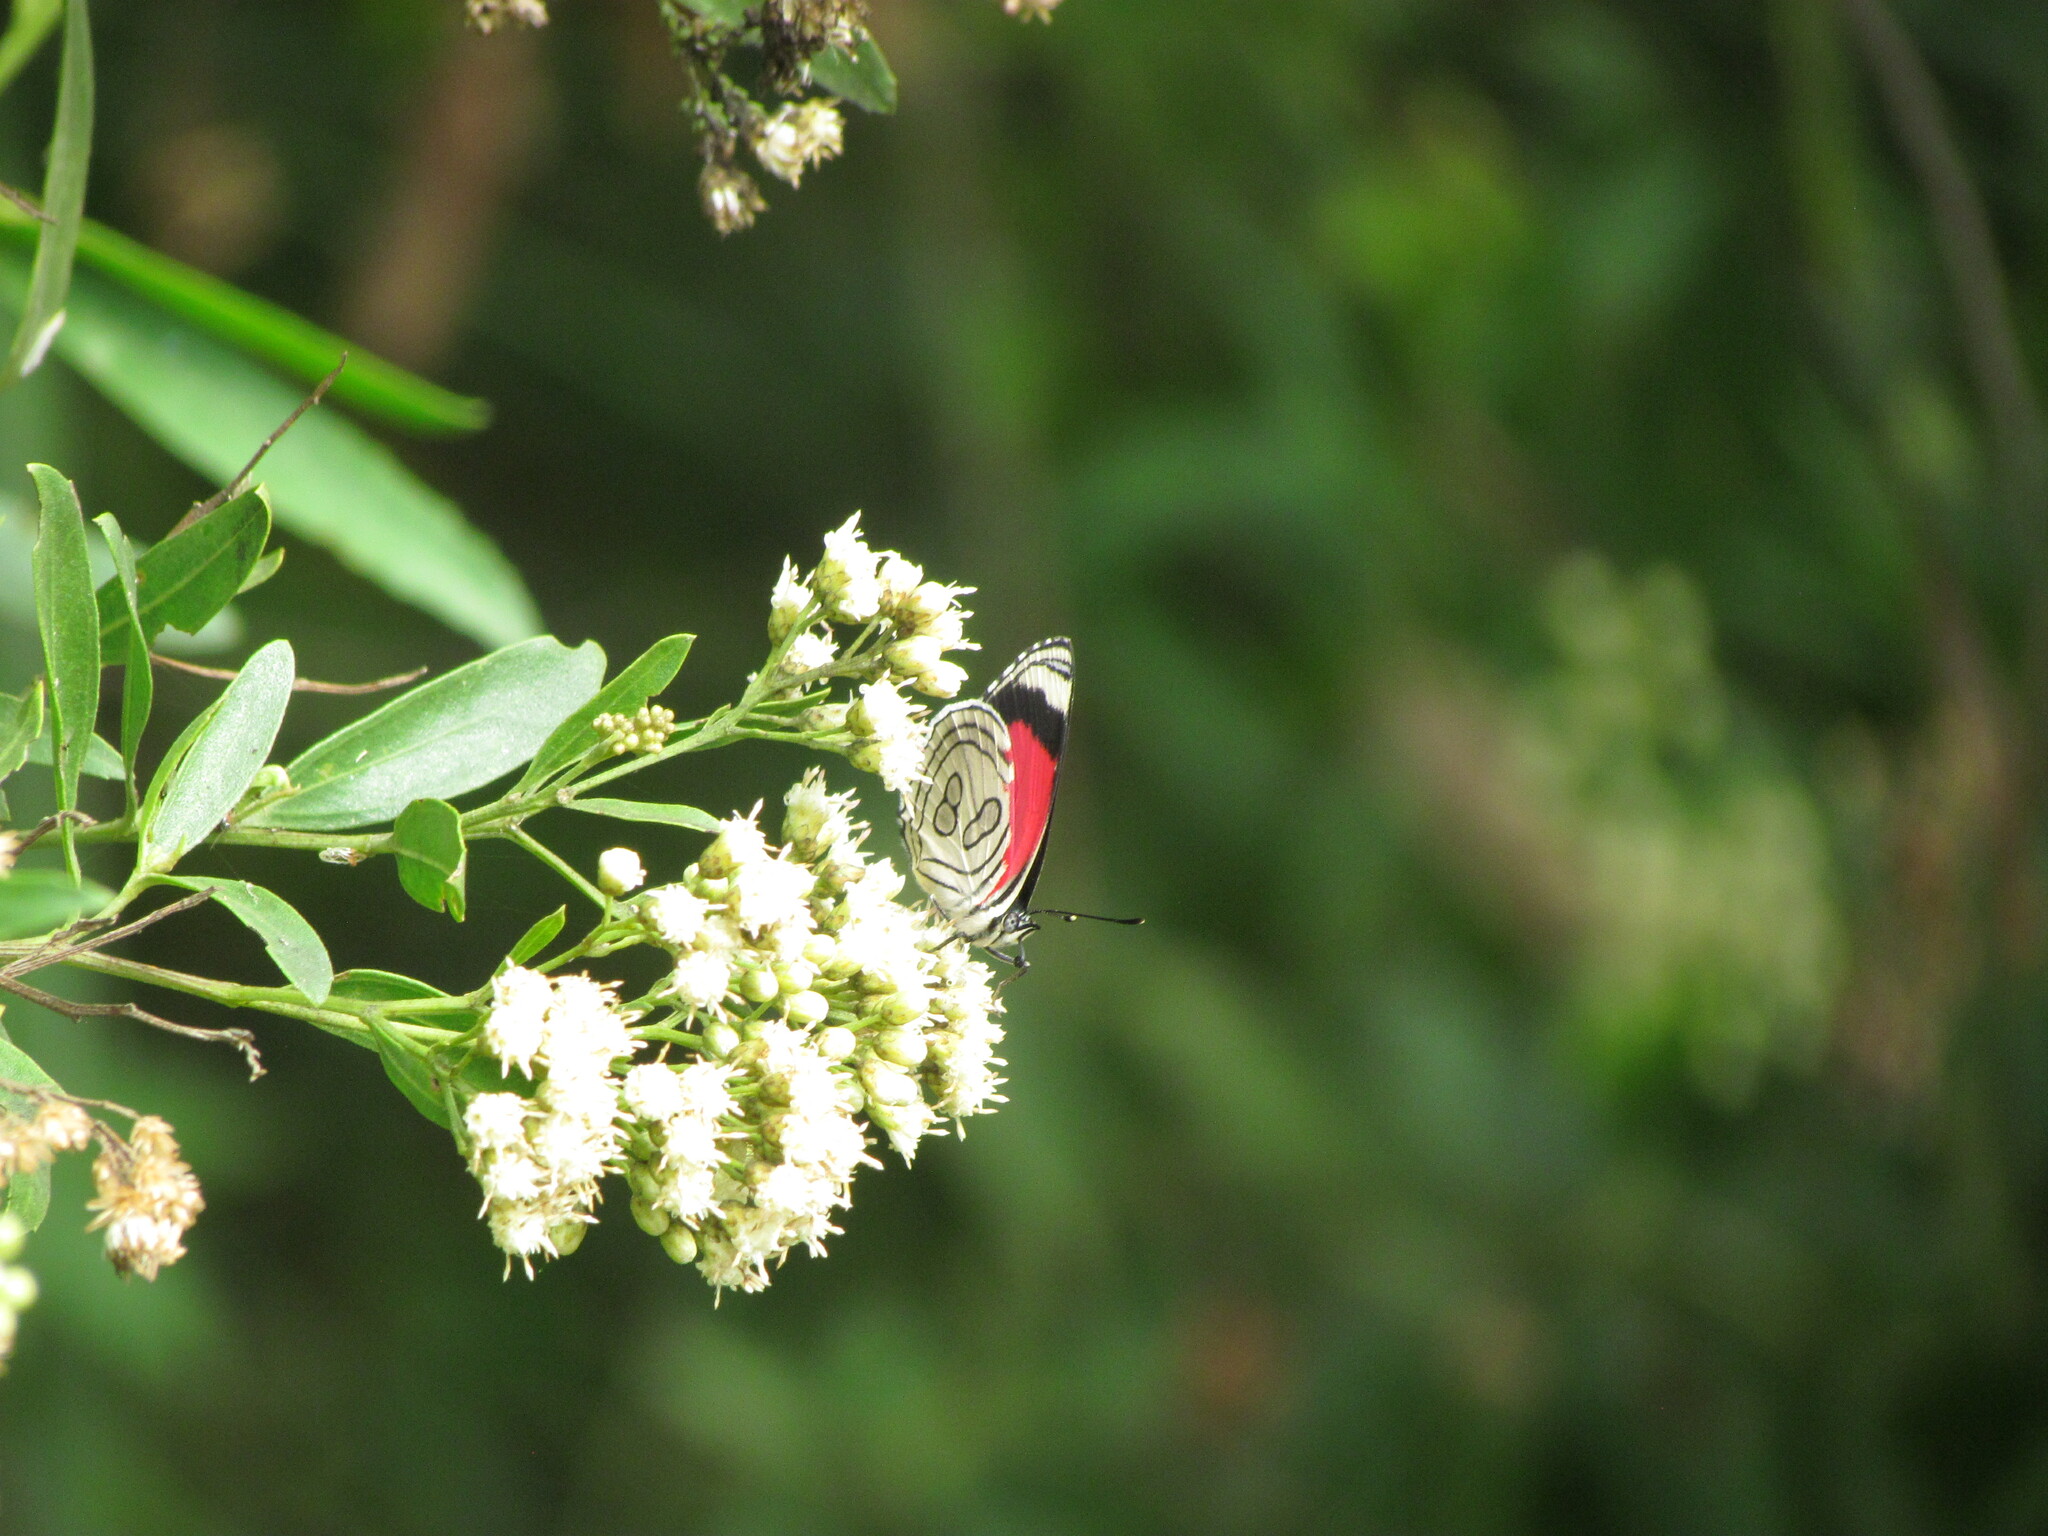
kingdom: Animalia
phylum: Arthropoda
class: Insecta
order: Lepidoptera
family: Nymphalidae
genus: Diaethria
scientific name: Diaethria candrena
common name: Number eighty
